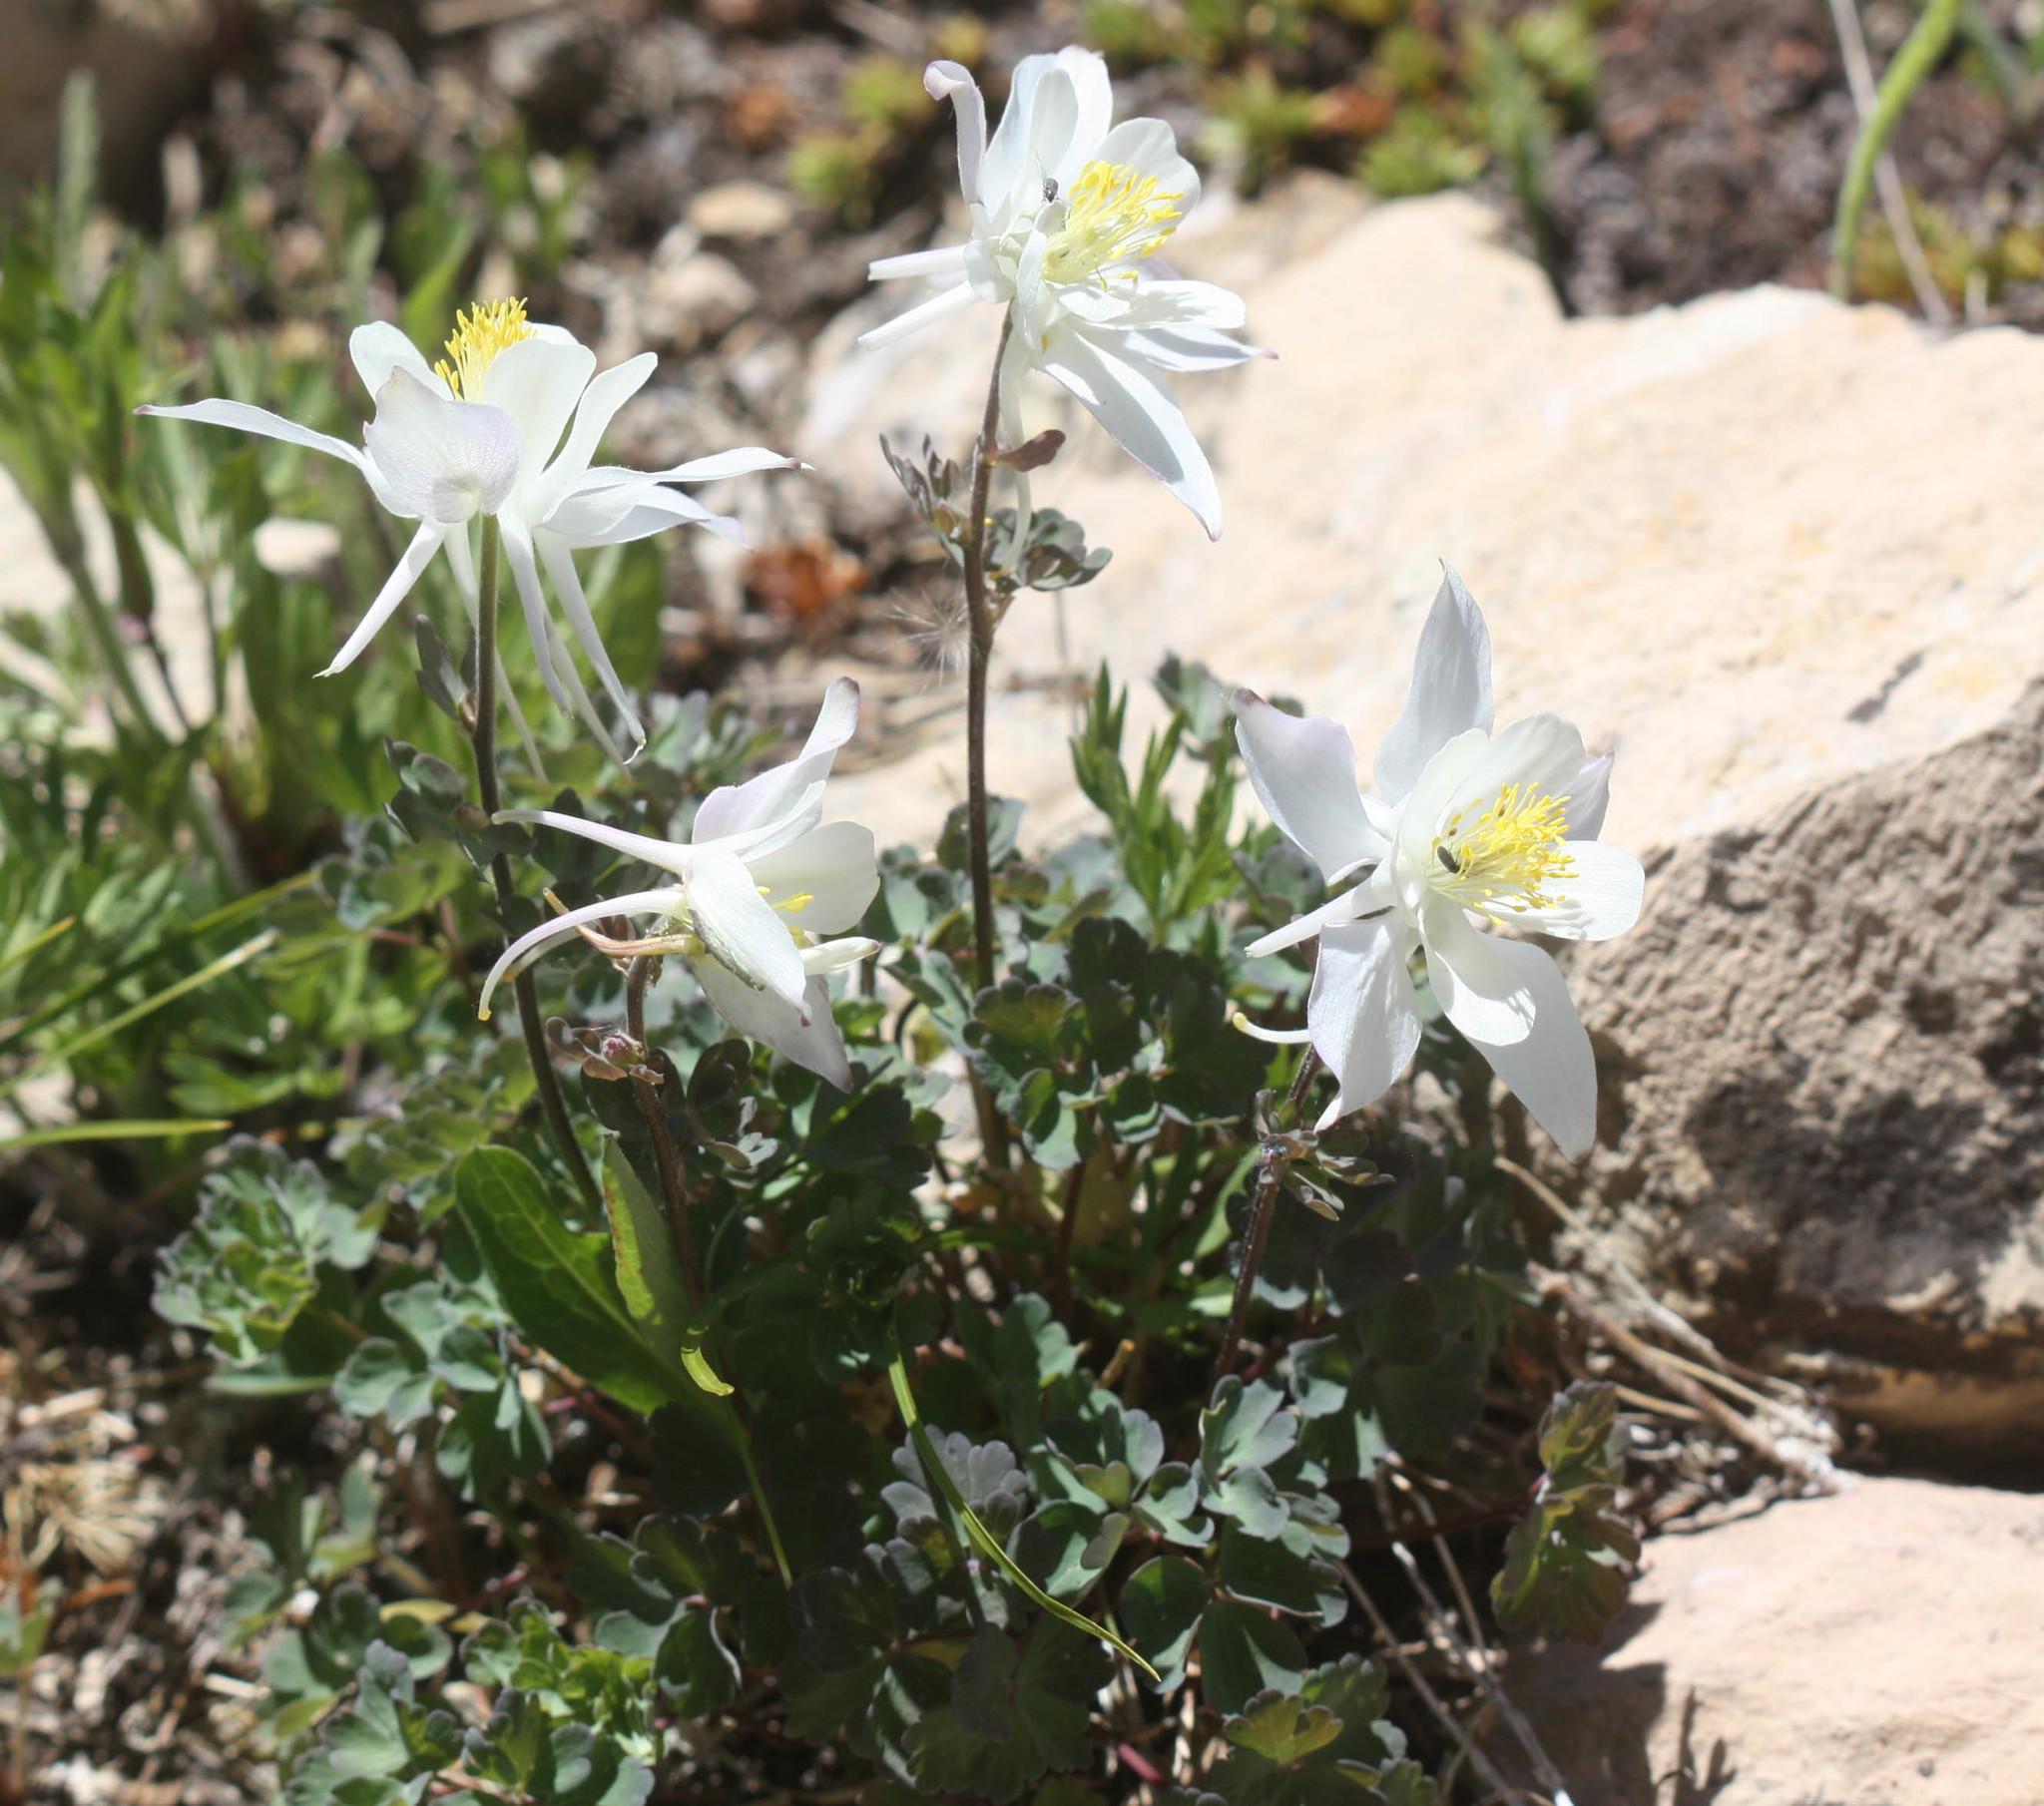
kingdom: Plantae
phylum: Tracheophyta
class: Magnoliopsida
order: Ranunculales
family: Ranunculaceae
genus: Aquilegia
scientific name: Aquilegia coerulea
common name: Rocky mountain columbine
